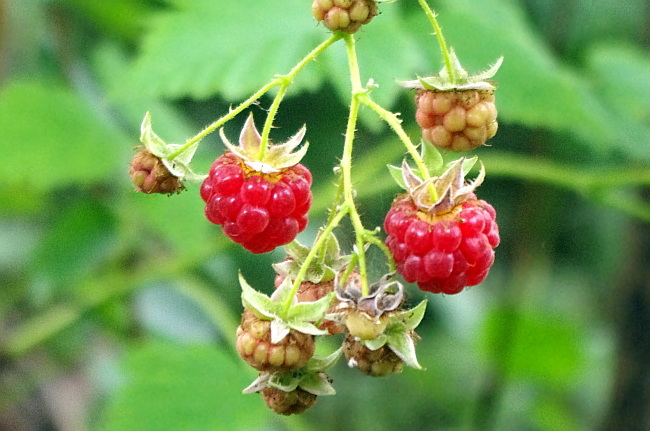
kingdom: Plantae
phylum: Tracheophyta
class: Magnoliopsida
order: Rosales
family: Rosaceae
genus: Rubus
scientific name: Rubus idaeus
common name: Raspberry
